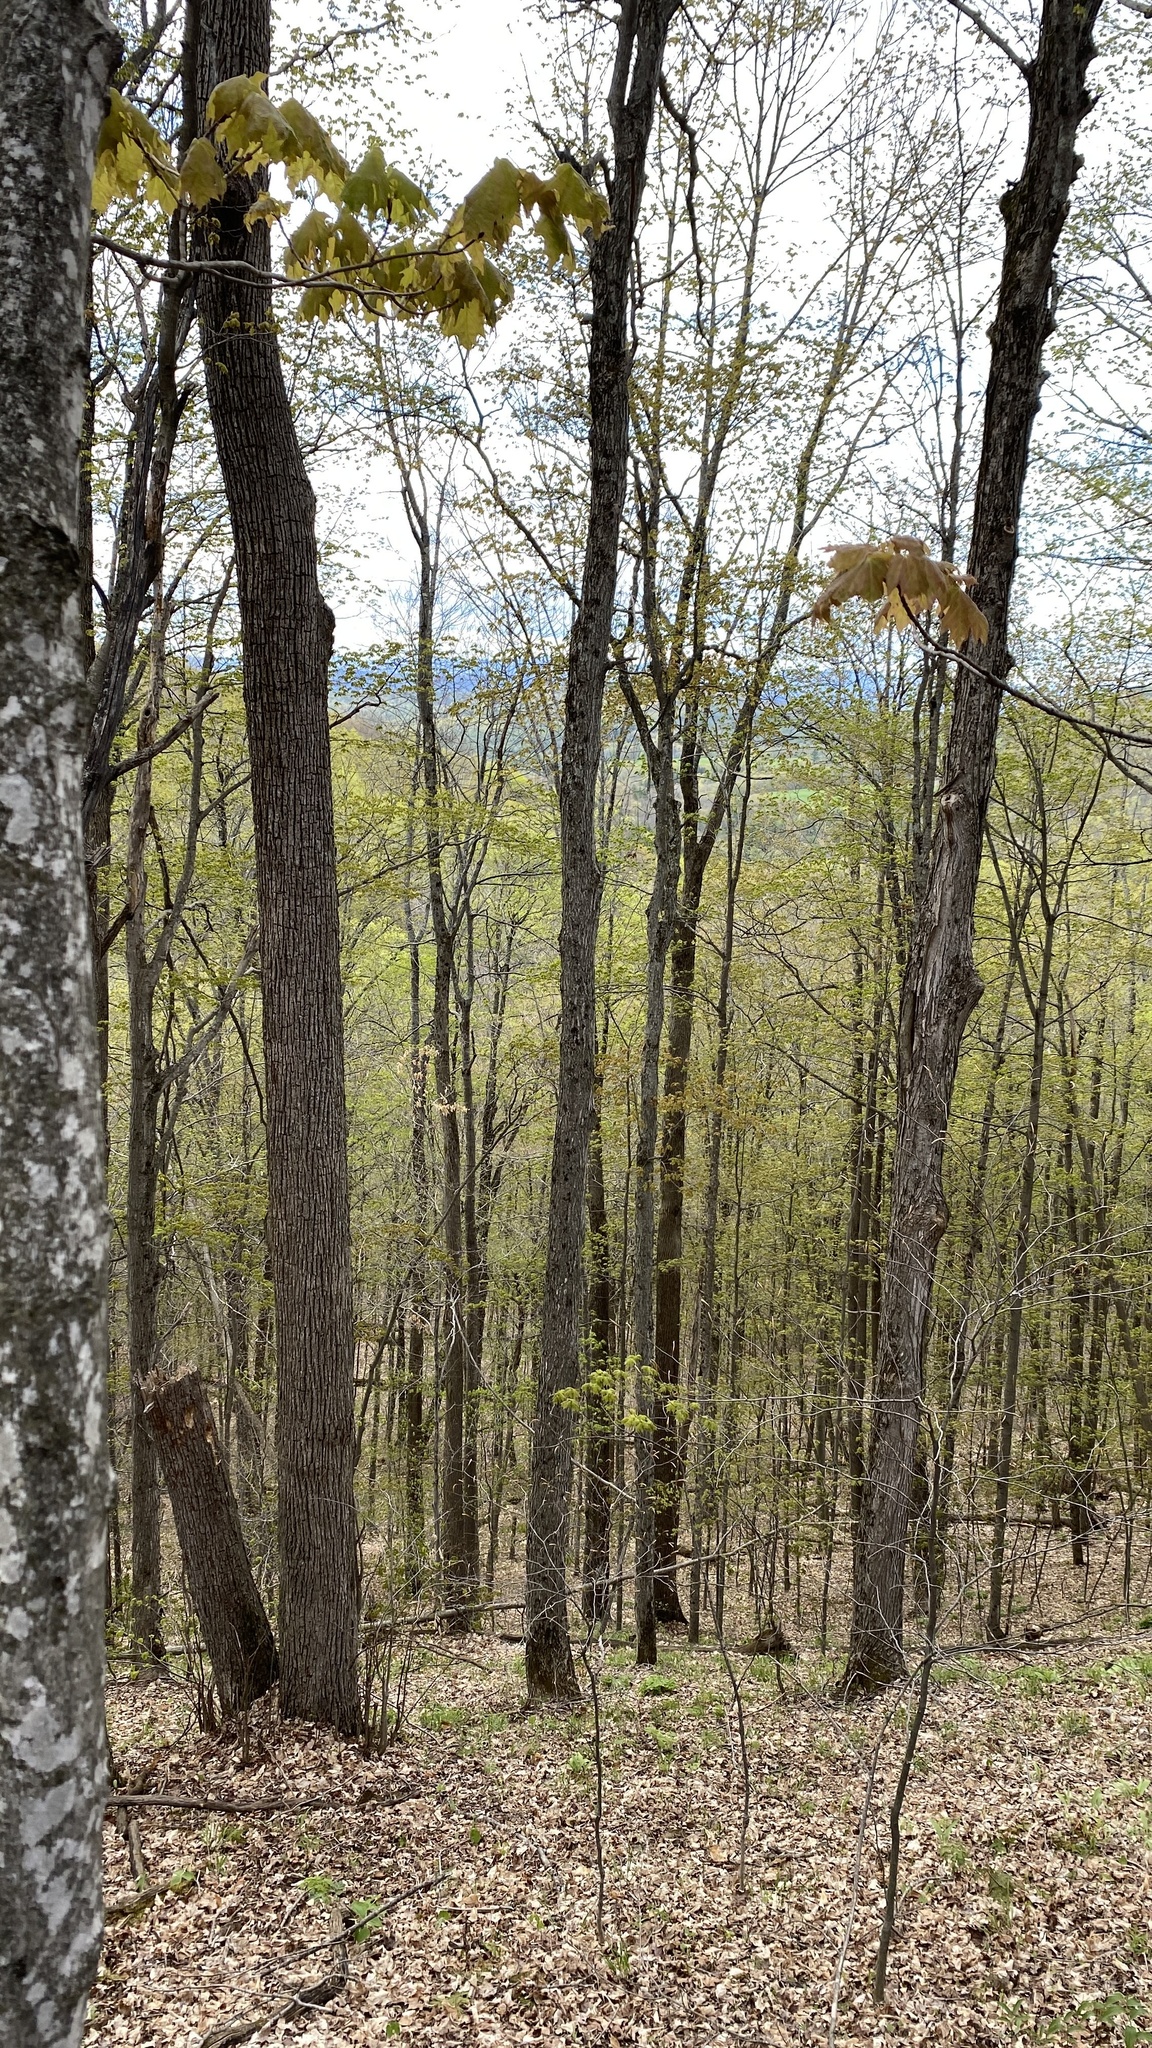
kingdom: Plantae
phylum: Tracheophyta
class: Magnoliopsida
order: Sapindales
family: Sapindaceae
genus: Acer
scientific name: Acer saccharum
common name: Sugar maple
